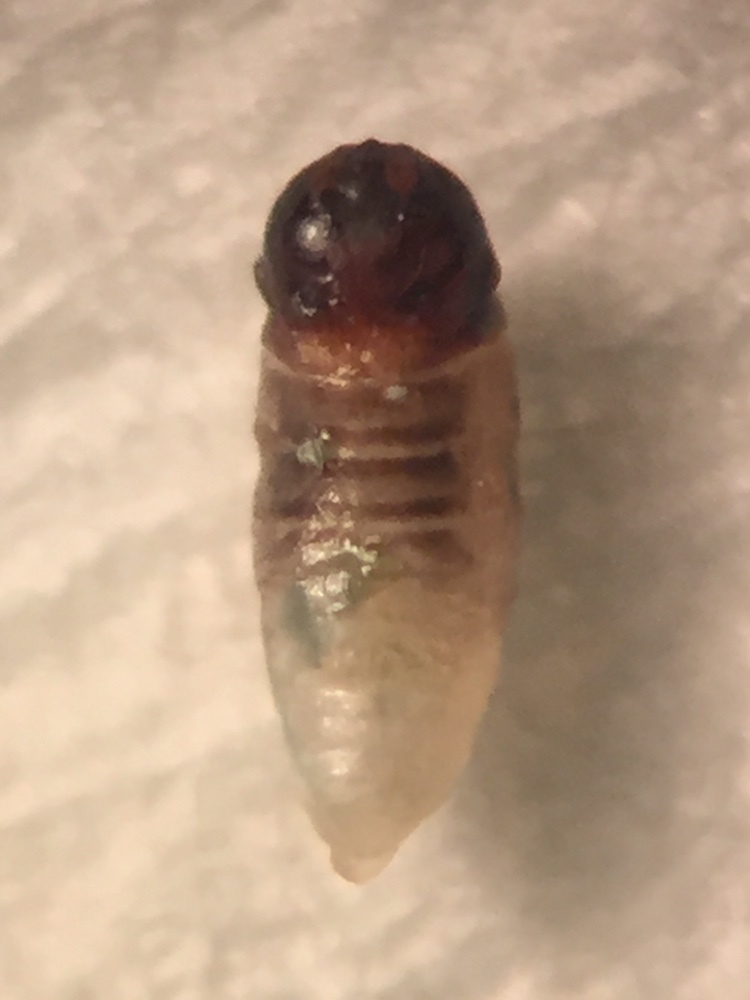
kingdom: Animalia
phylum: Arthropoda
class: Insecta
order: Strepsiptera
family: Halictophagidae
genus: Coriophagus
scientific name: Coriophagus casui
